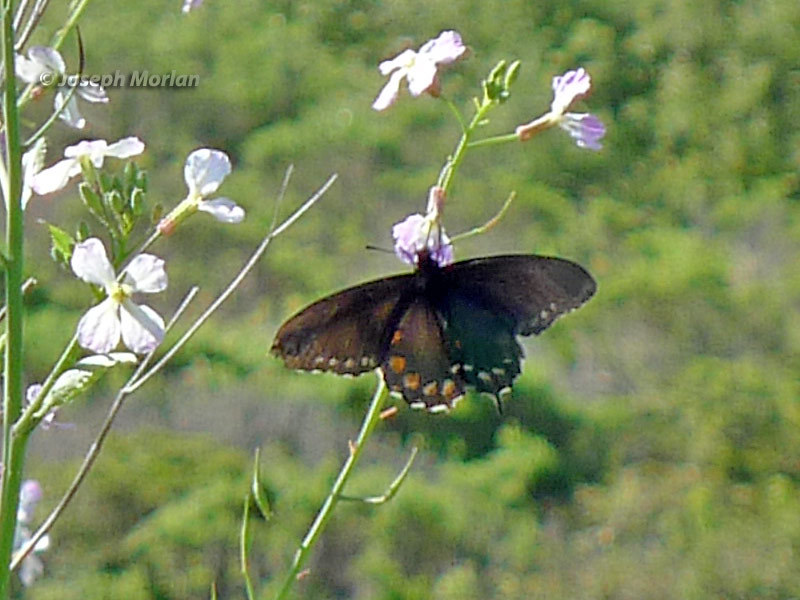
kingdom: Animalia
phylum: Arthropoda
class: Insecta
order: Lepidoptera
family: Papilionidae
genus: Battus
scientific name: Battus philenor
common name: Pipevine swallowtail
